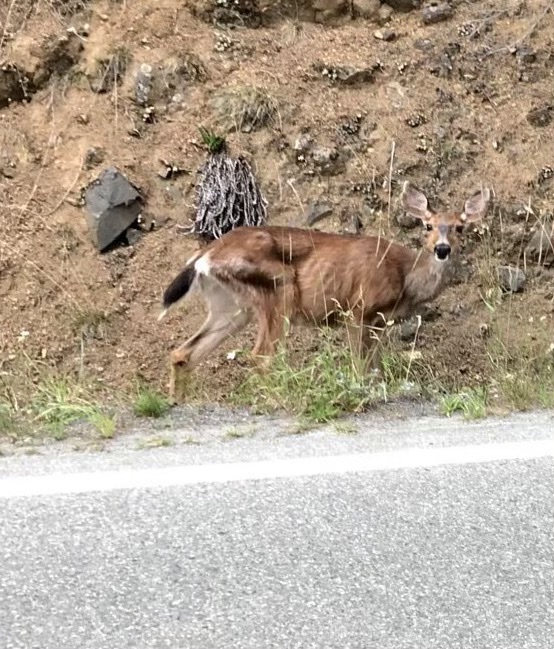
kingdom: Animalia
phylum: Chordata
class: Mammalia
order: Artiodactyla
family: Cervidae
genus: Odocoileus
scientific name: Odocoileus hemionus
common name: Mule deer
